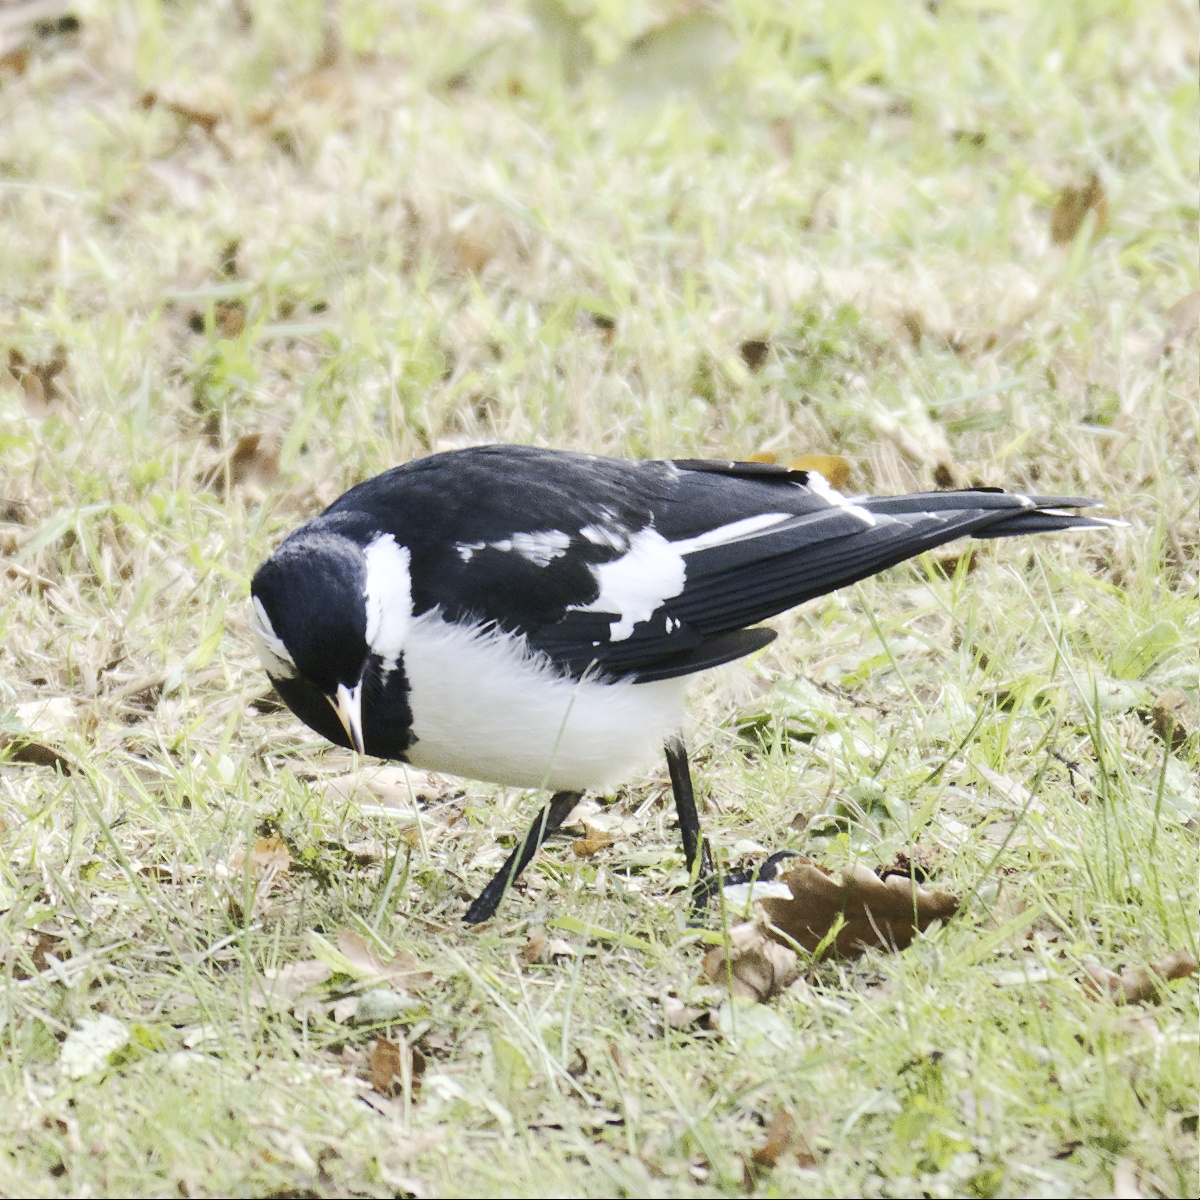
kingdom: Animalia
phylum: Chordata
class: Aves
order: Passeriformes
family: Monarchidae
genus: Grallina
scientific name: Grallina cyanoleuca
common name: Magpie-lark
